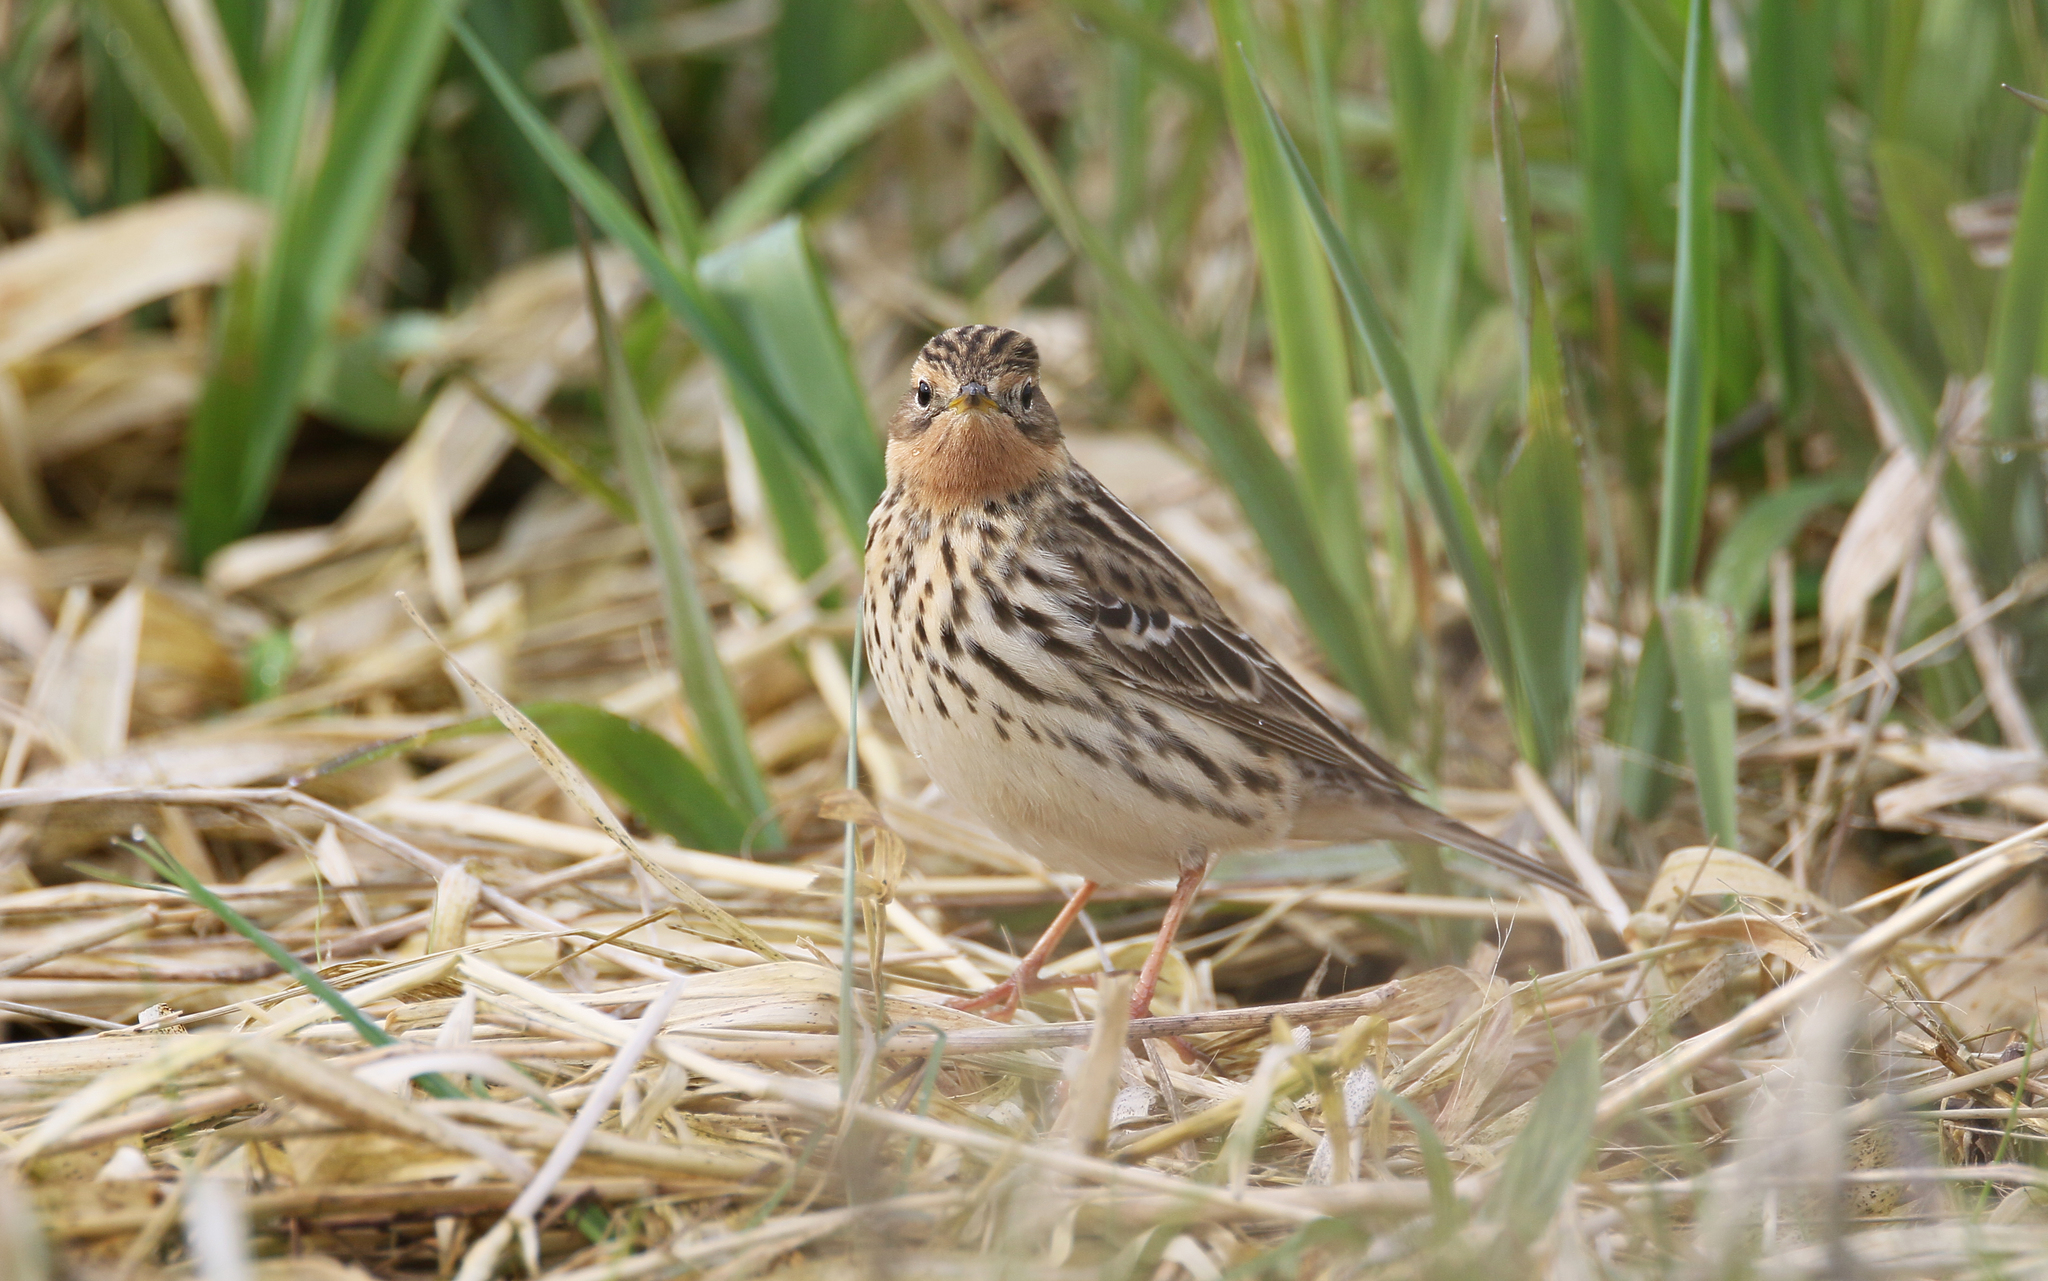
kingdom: Animalia
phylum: Chordata
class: Aves
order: Passeriformes
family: Motacillidae
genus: Anthus
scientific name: Anthus cervinus
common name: Red-throated pipit
